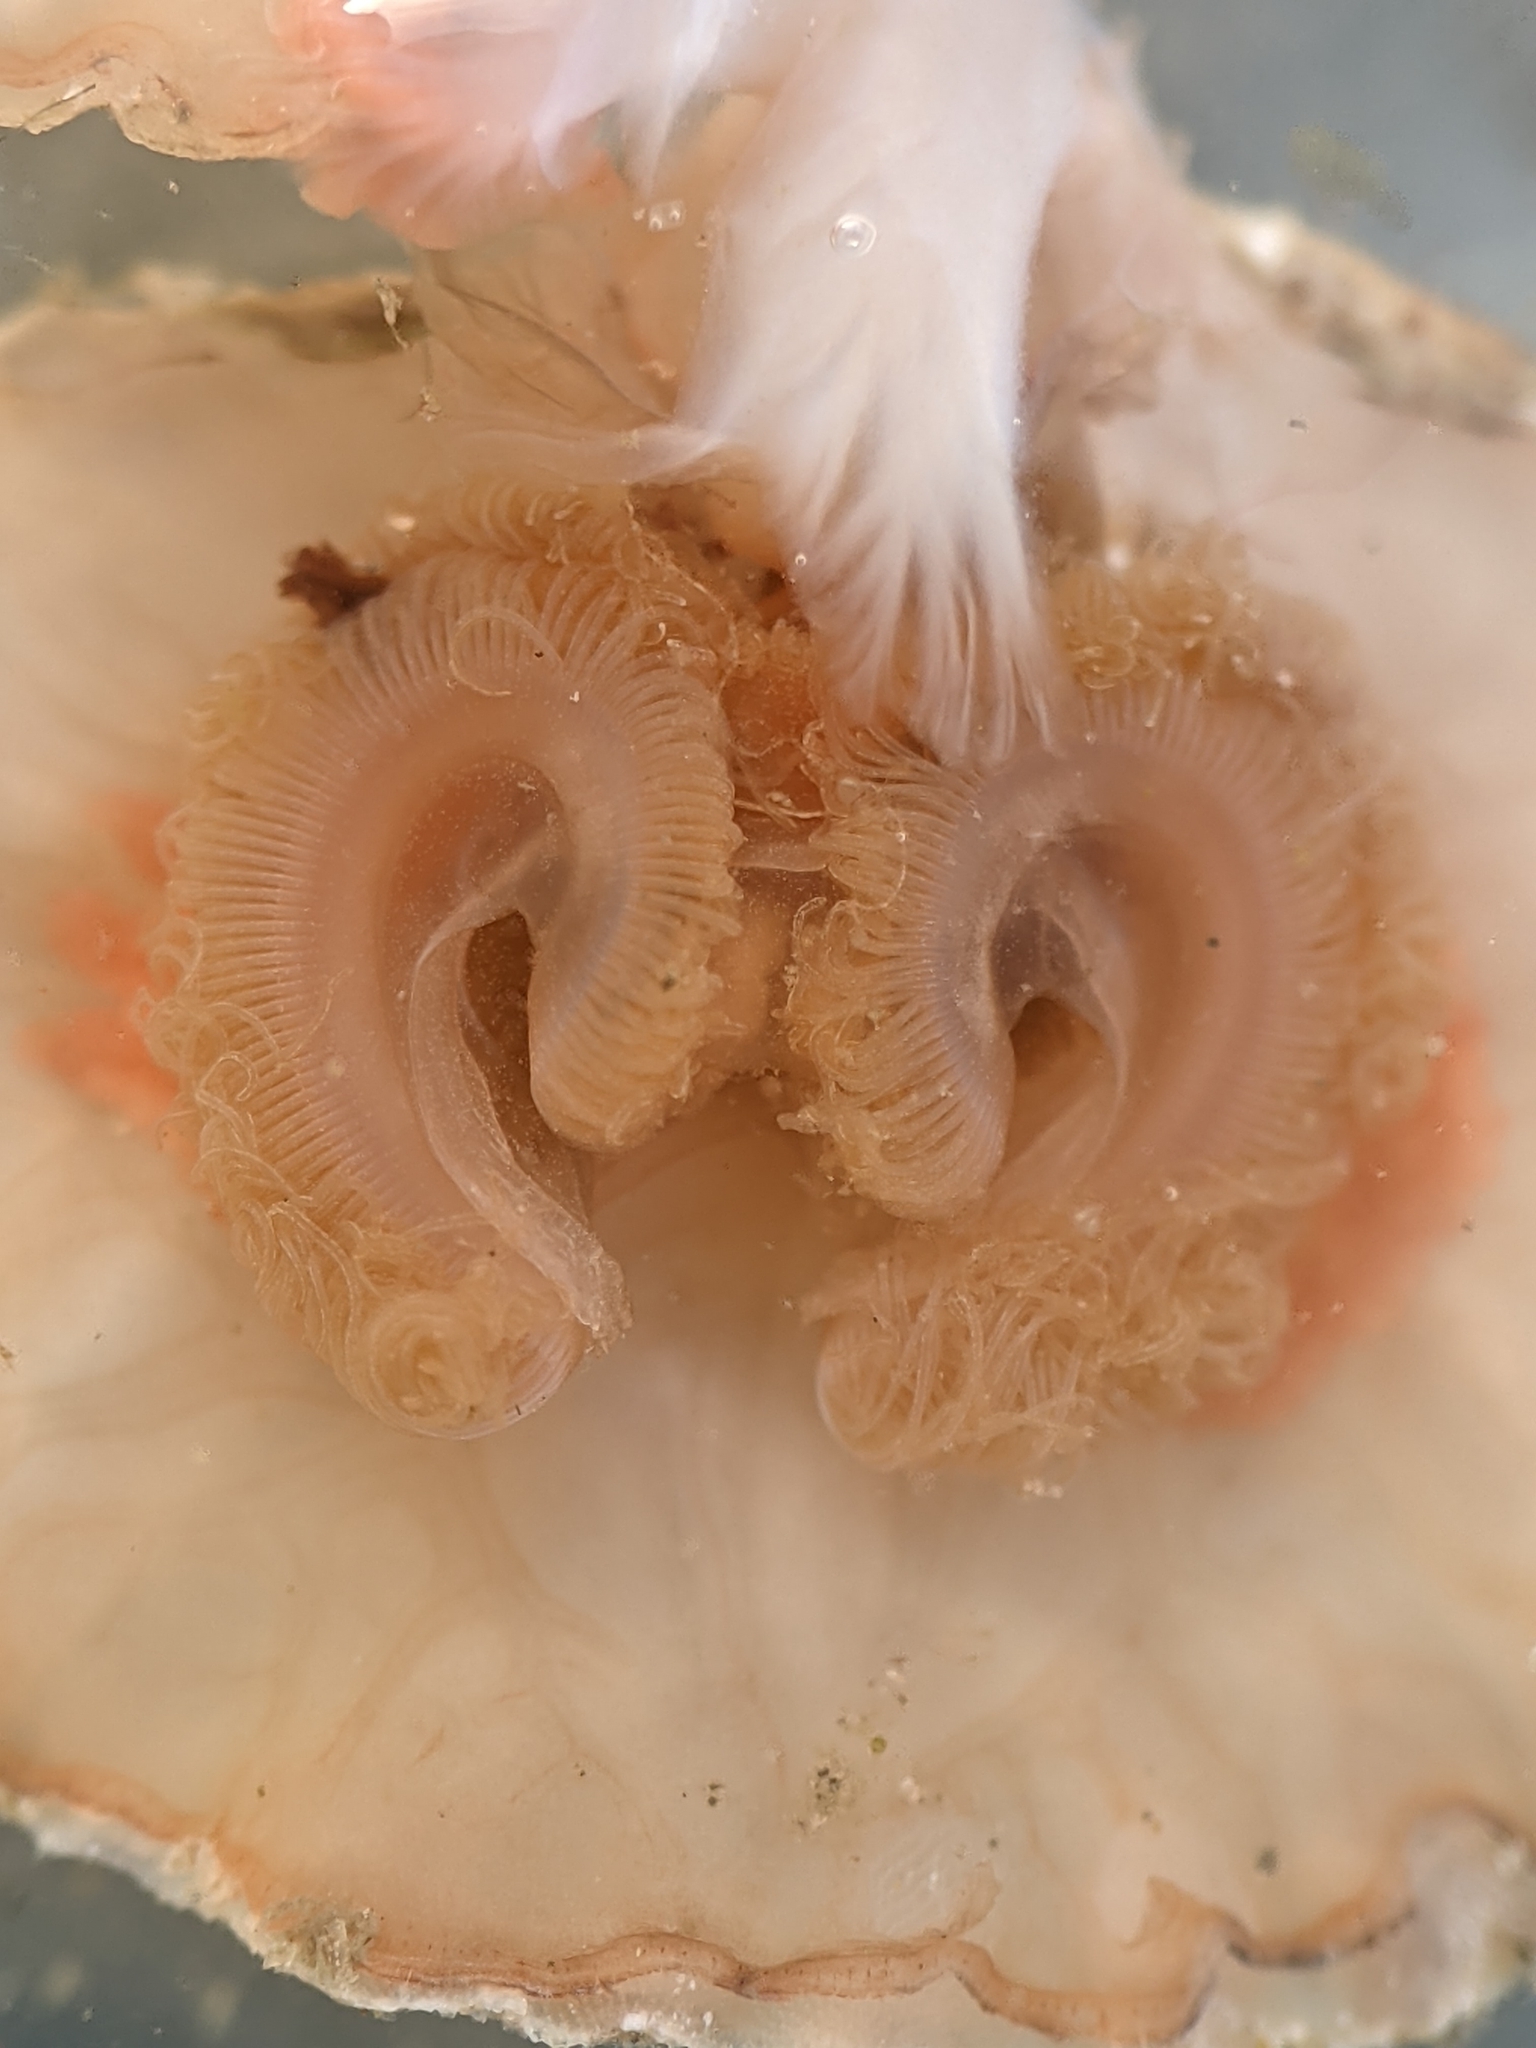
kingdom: Animalia
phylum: Brachiopoda
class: Rhynchonellata
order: Terebratulida
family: Terebrataliidae
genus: Terebratalia
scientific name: Terebratalia transversa
